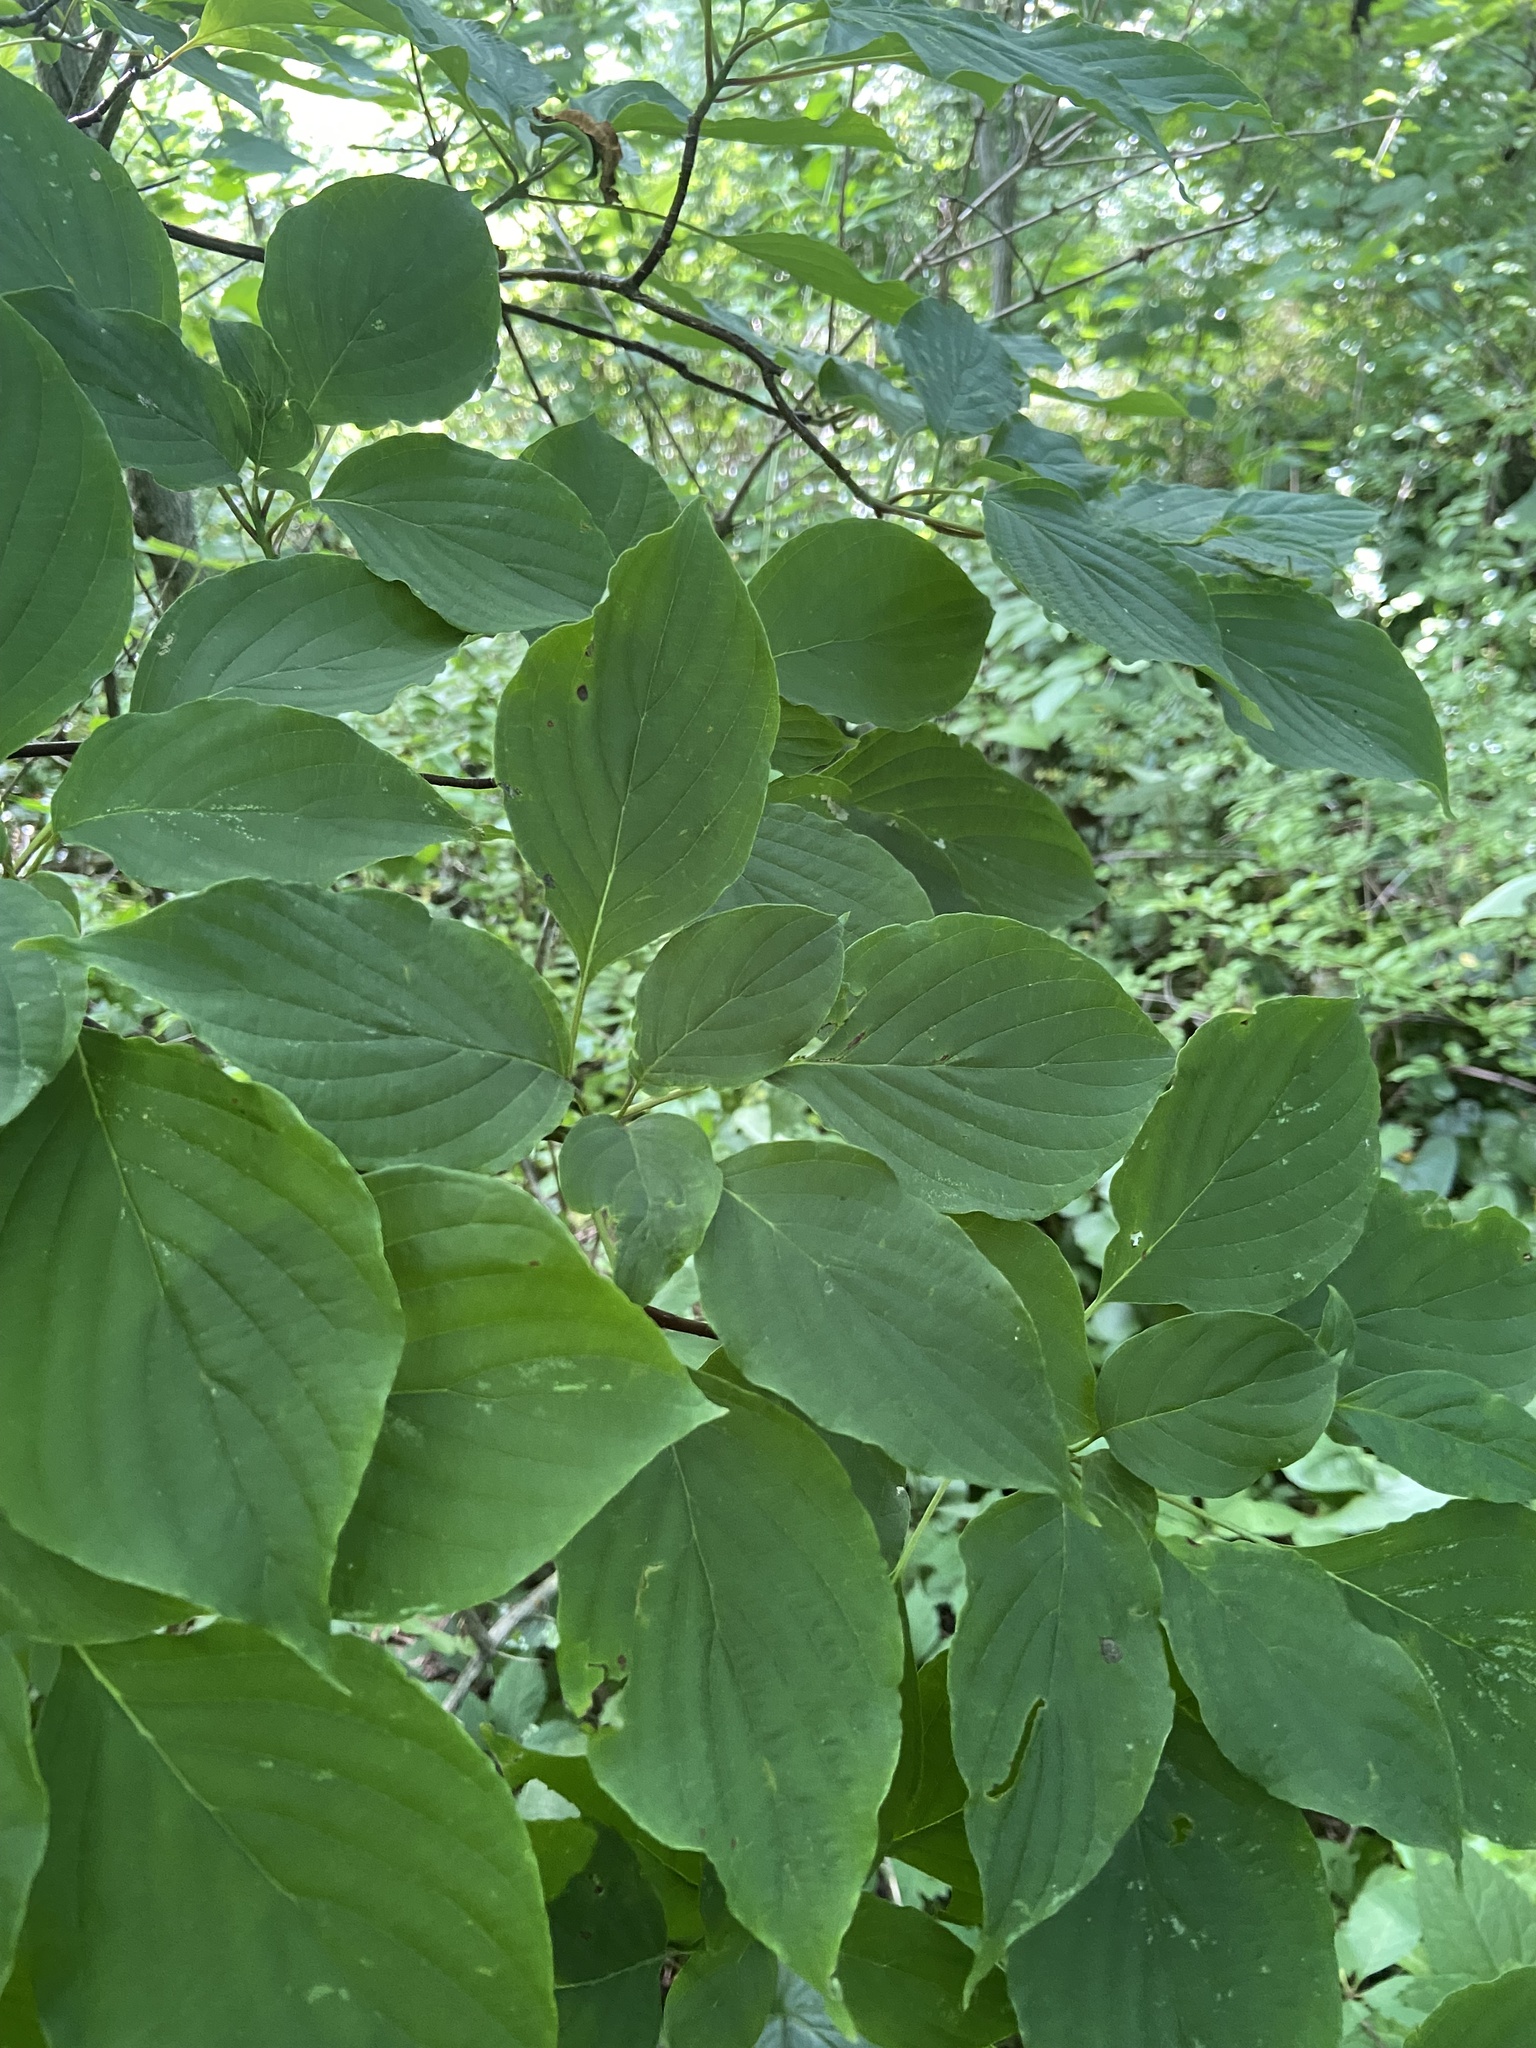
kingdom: Plantae
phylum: Tracheophyta
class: Magnoliopsida
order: Cornales
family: Cornaceae
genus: Cornus
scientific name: Cornus alternifolia
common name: Pagoda dogwood
